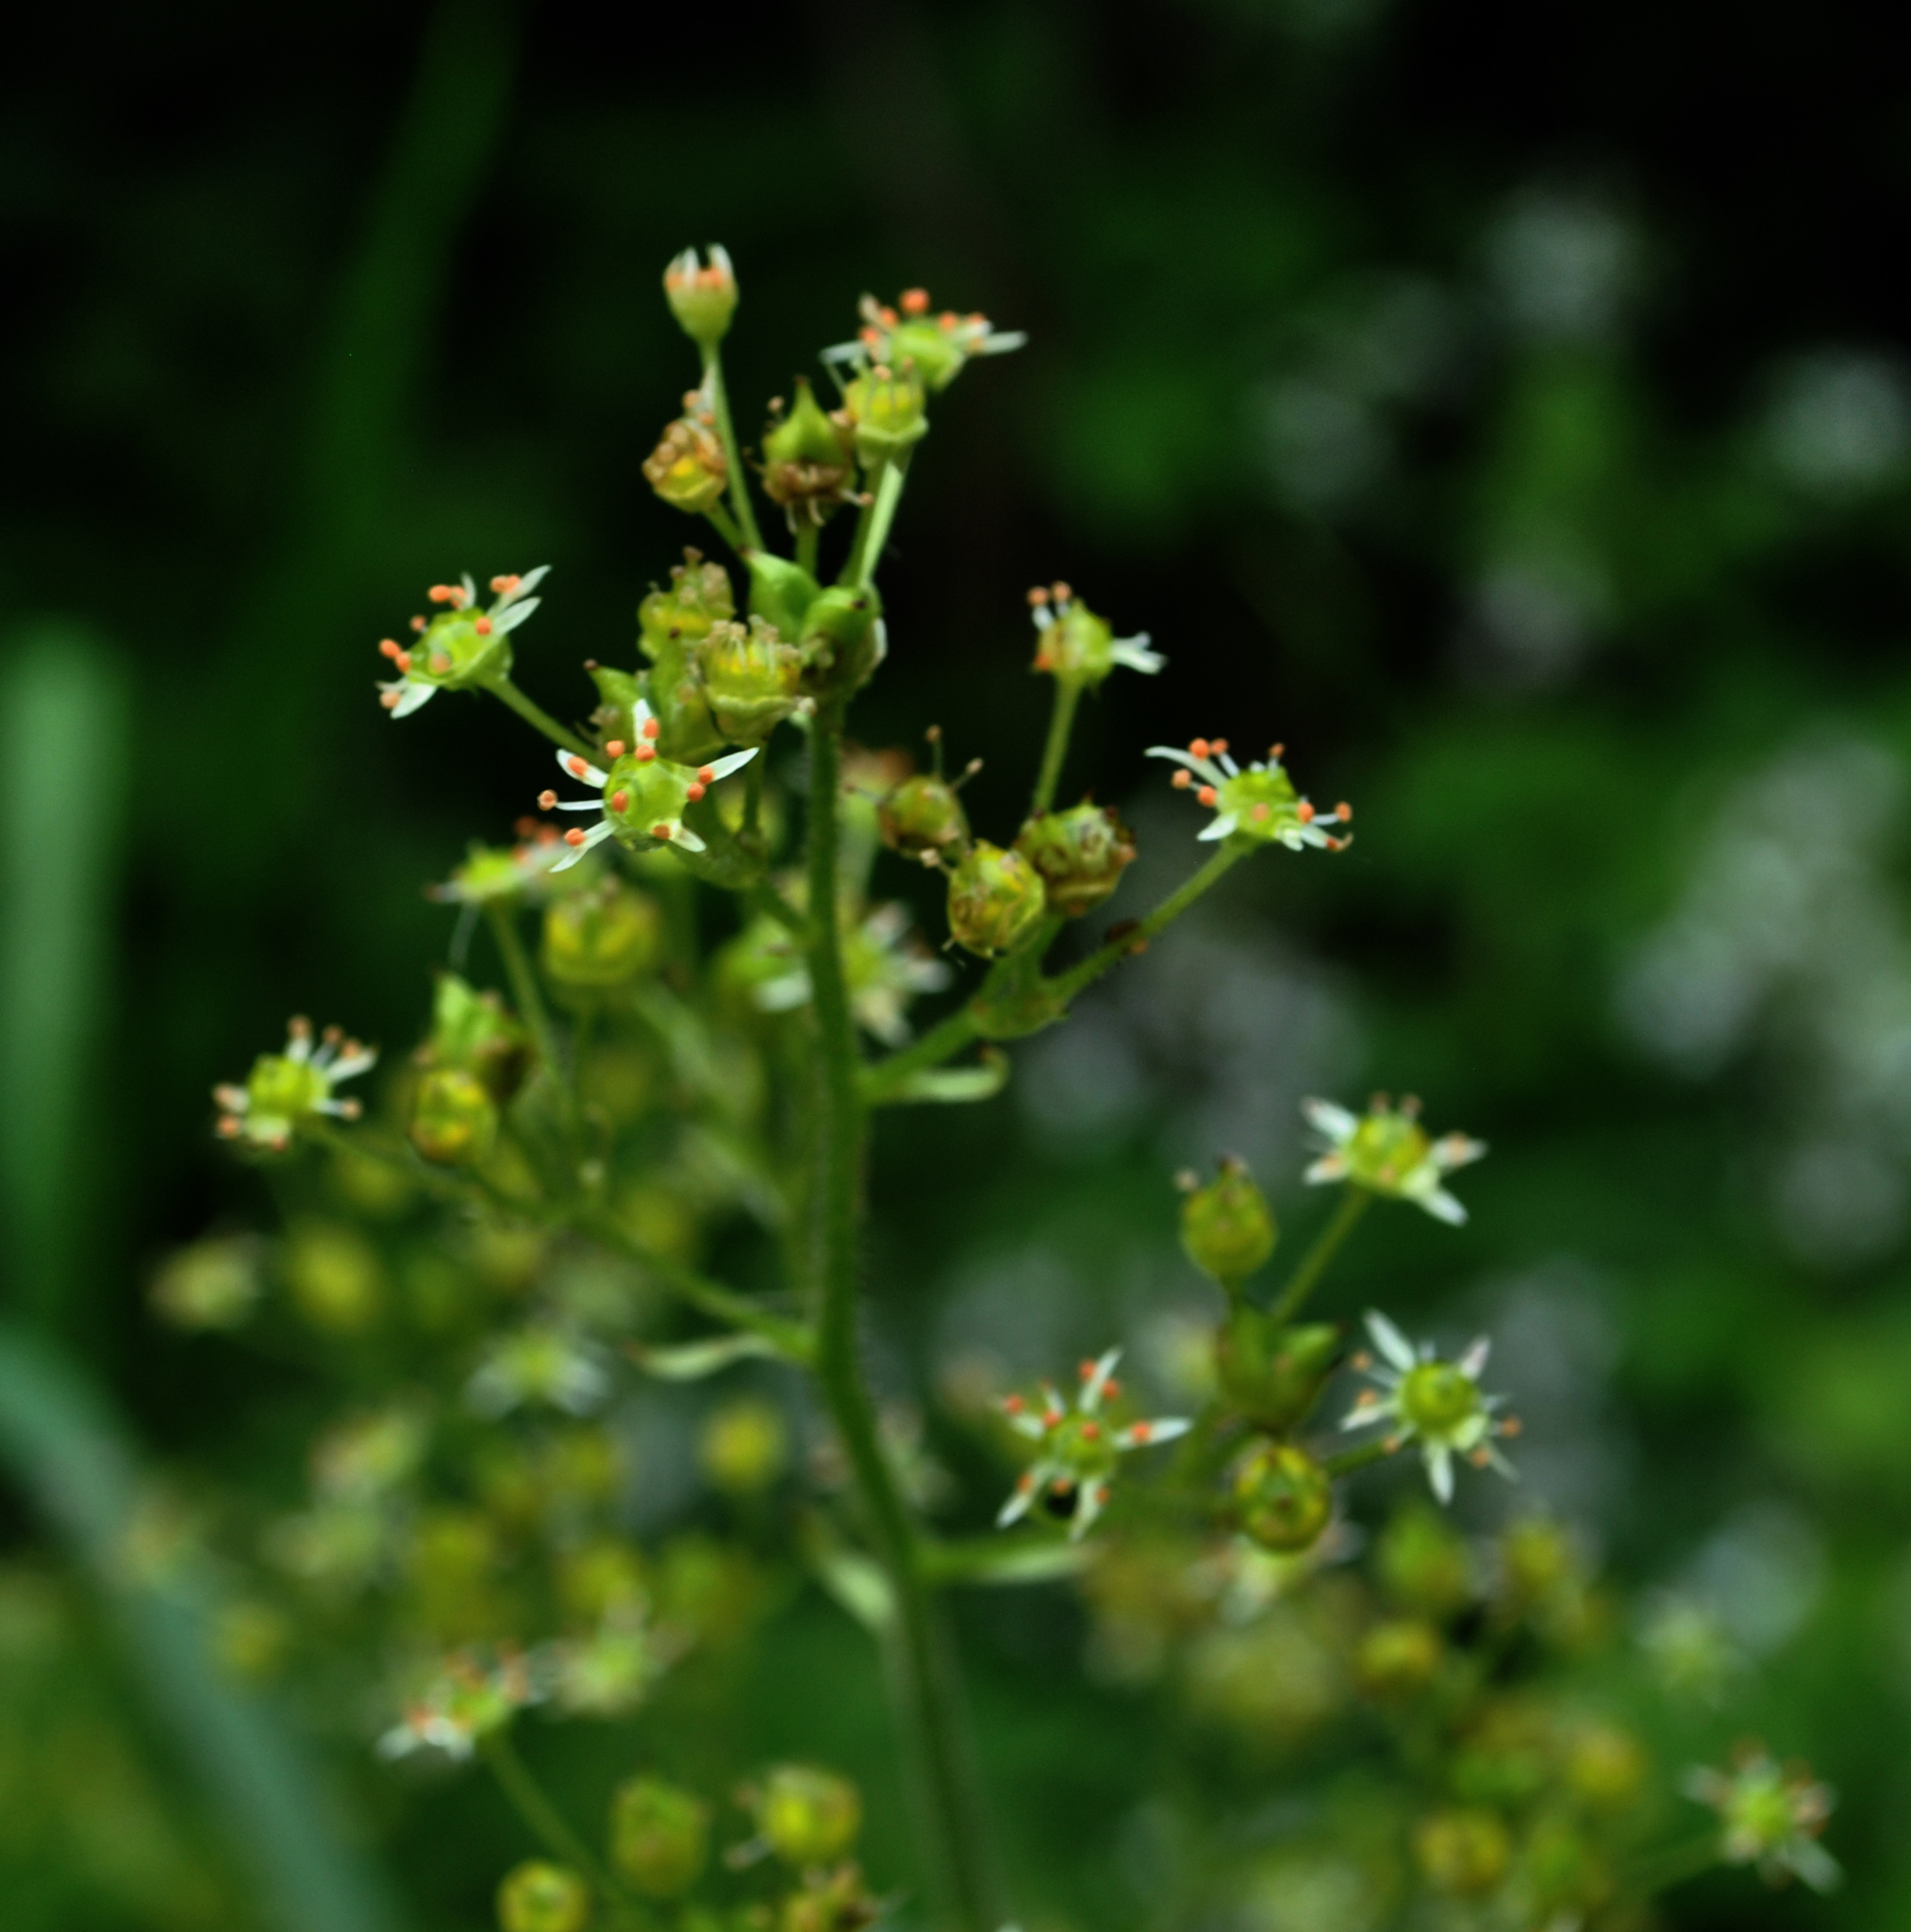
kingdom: Plantae
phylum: Tracheophyta
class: Magnoliopsida
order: Saxifragales
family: Saxifragaceae
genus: Micranthes
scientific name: Micranthes pensylvanica
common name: Marsh saxifrage
